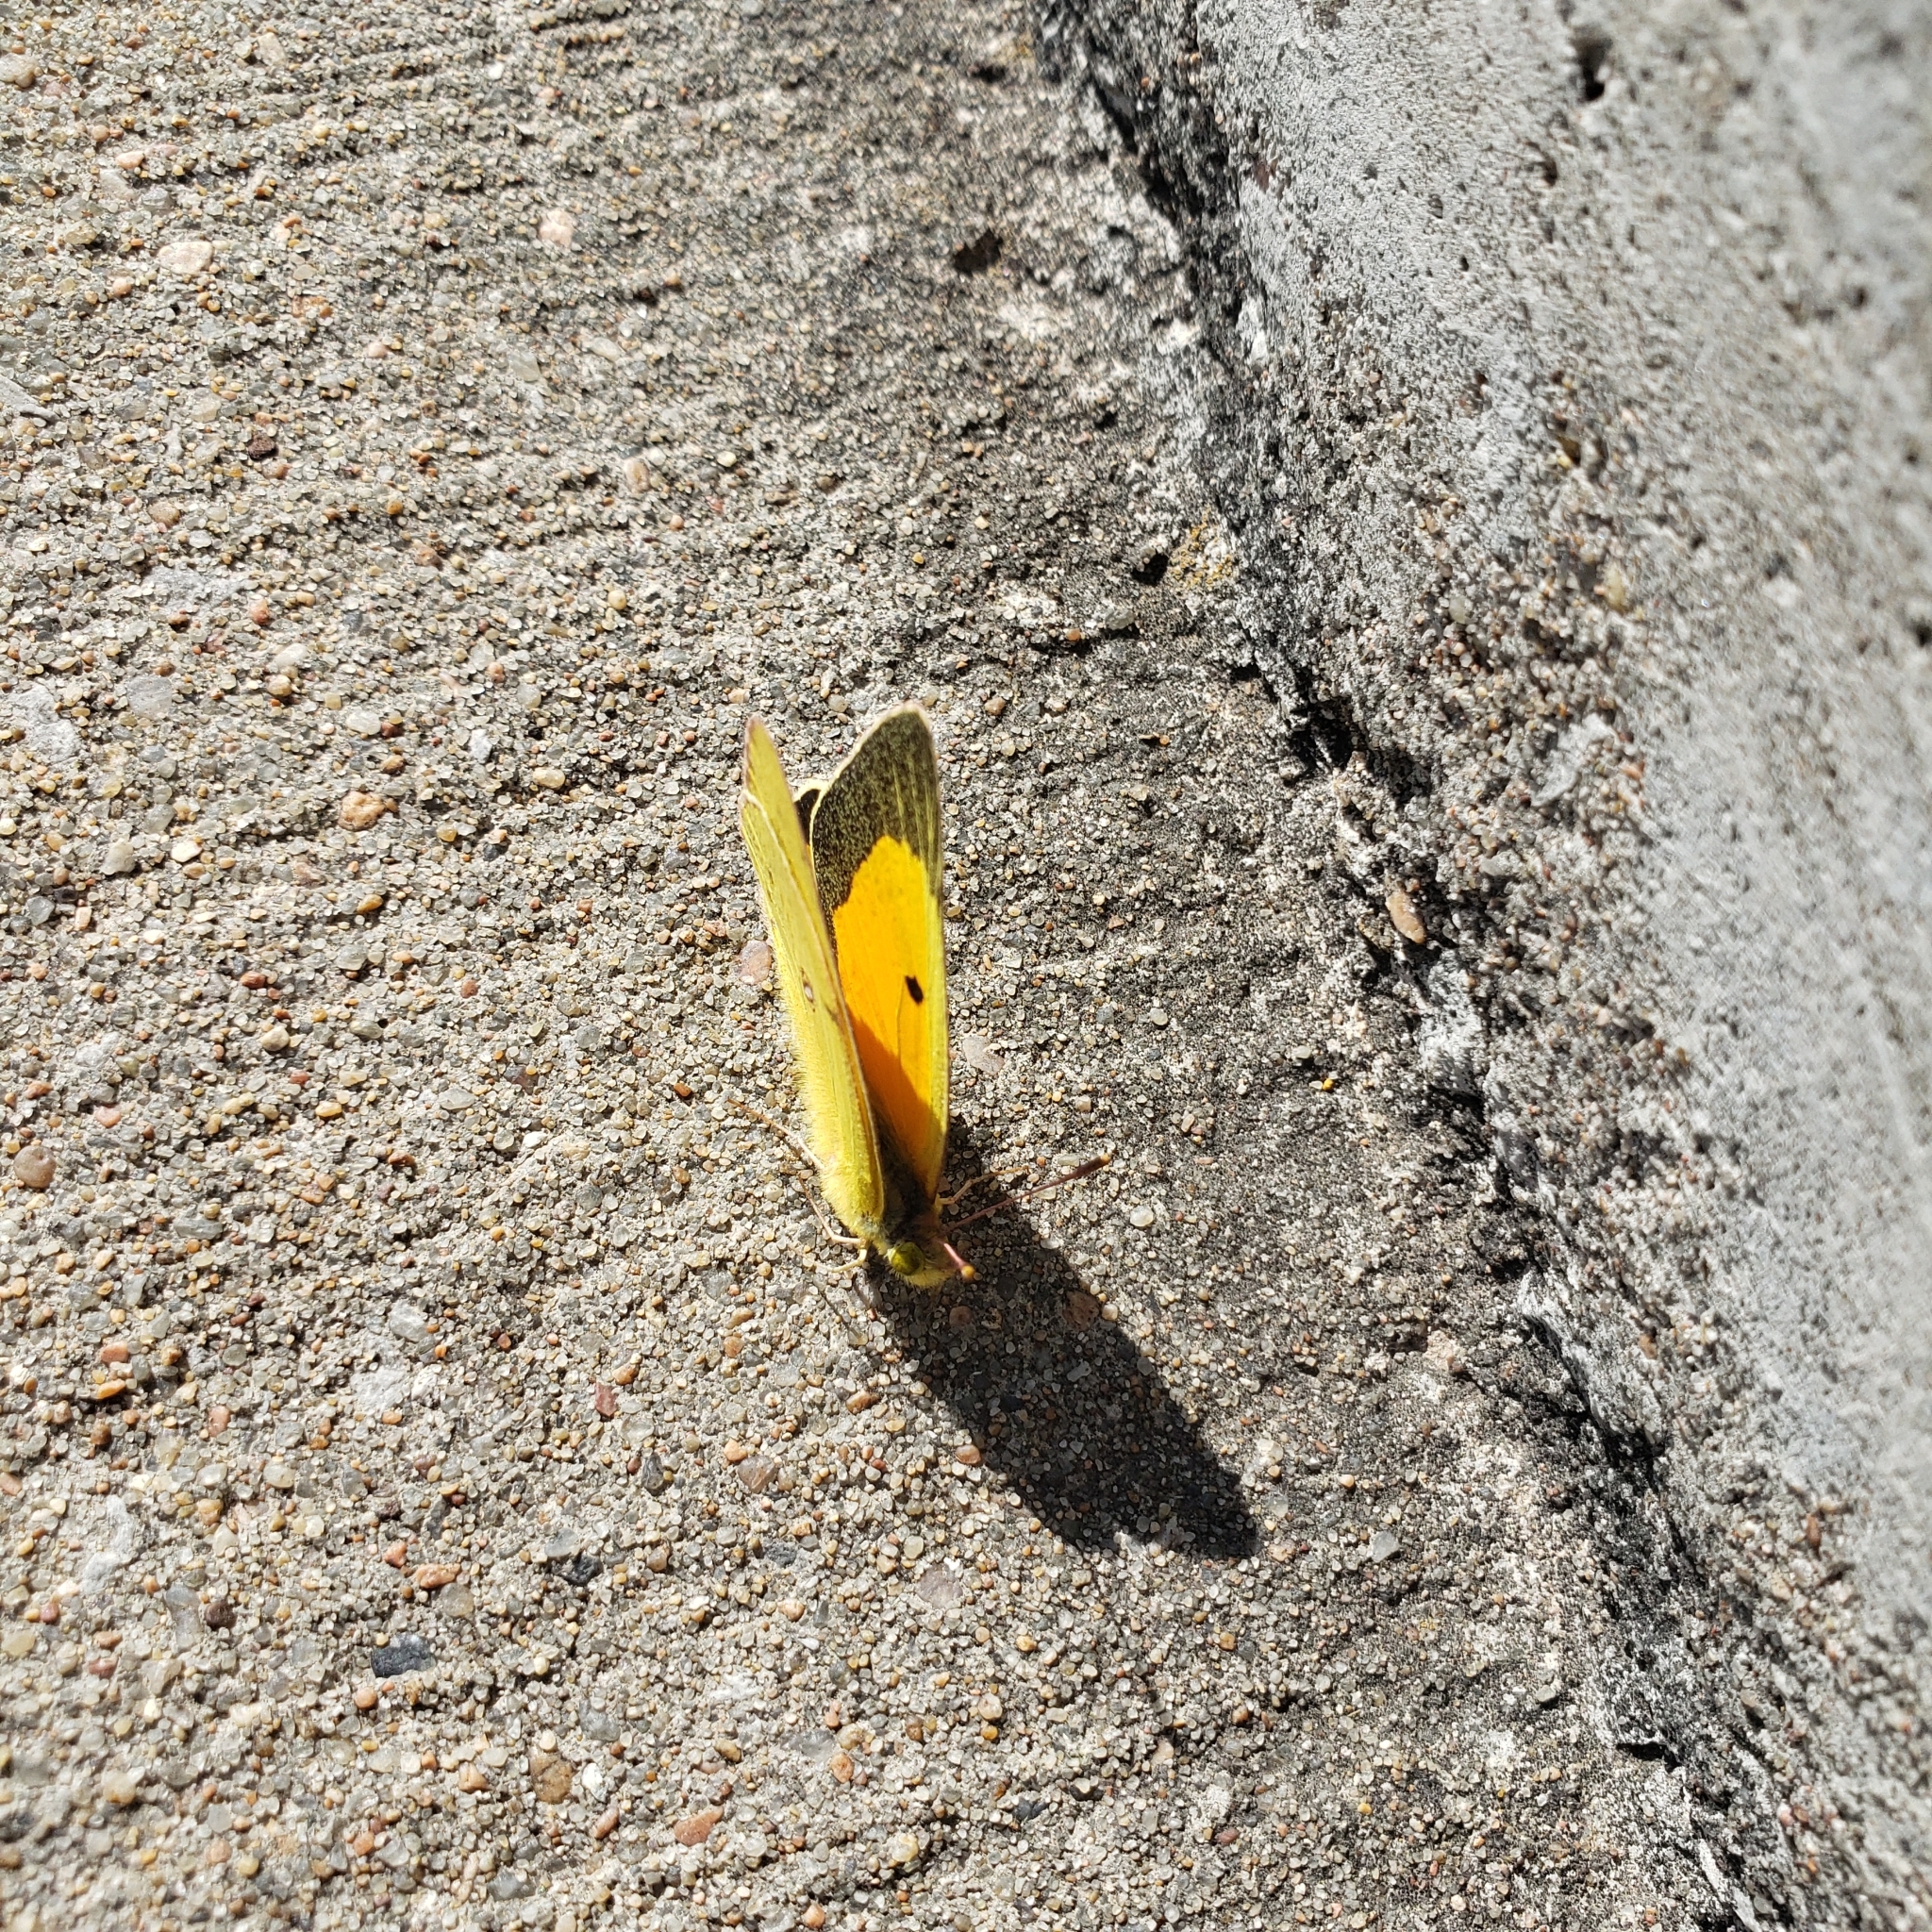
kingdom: Animalia
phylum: Arthropoda
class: Insecta
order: Lepidoptera
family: Pieridae
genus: Colias
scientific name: Colias eurytheme
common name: Alfalfa butterfly
